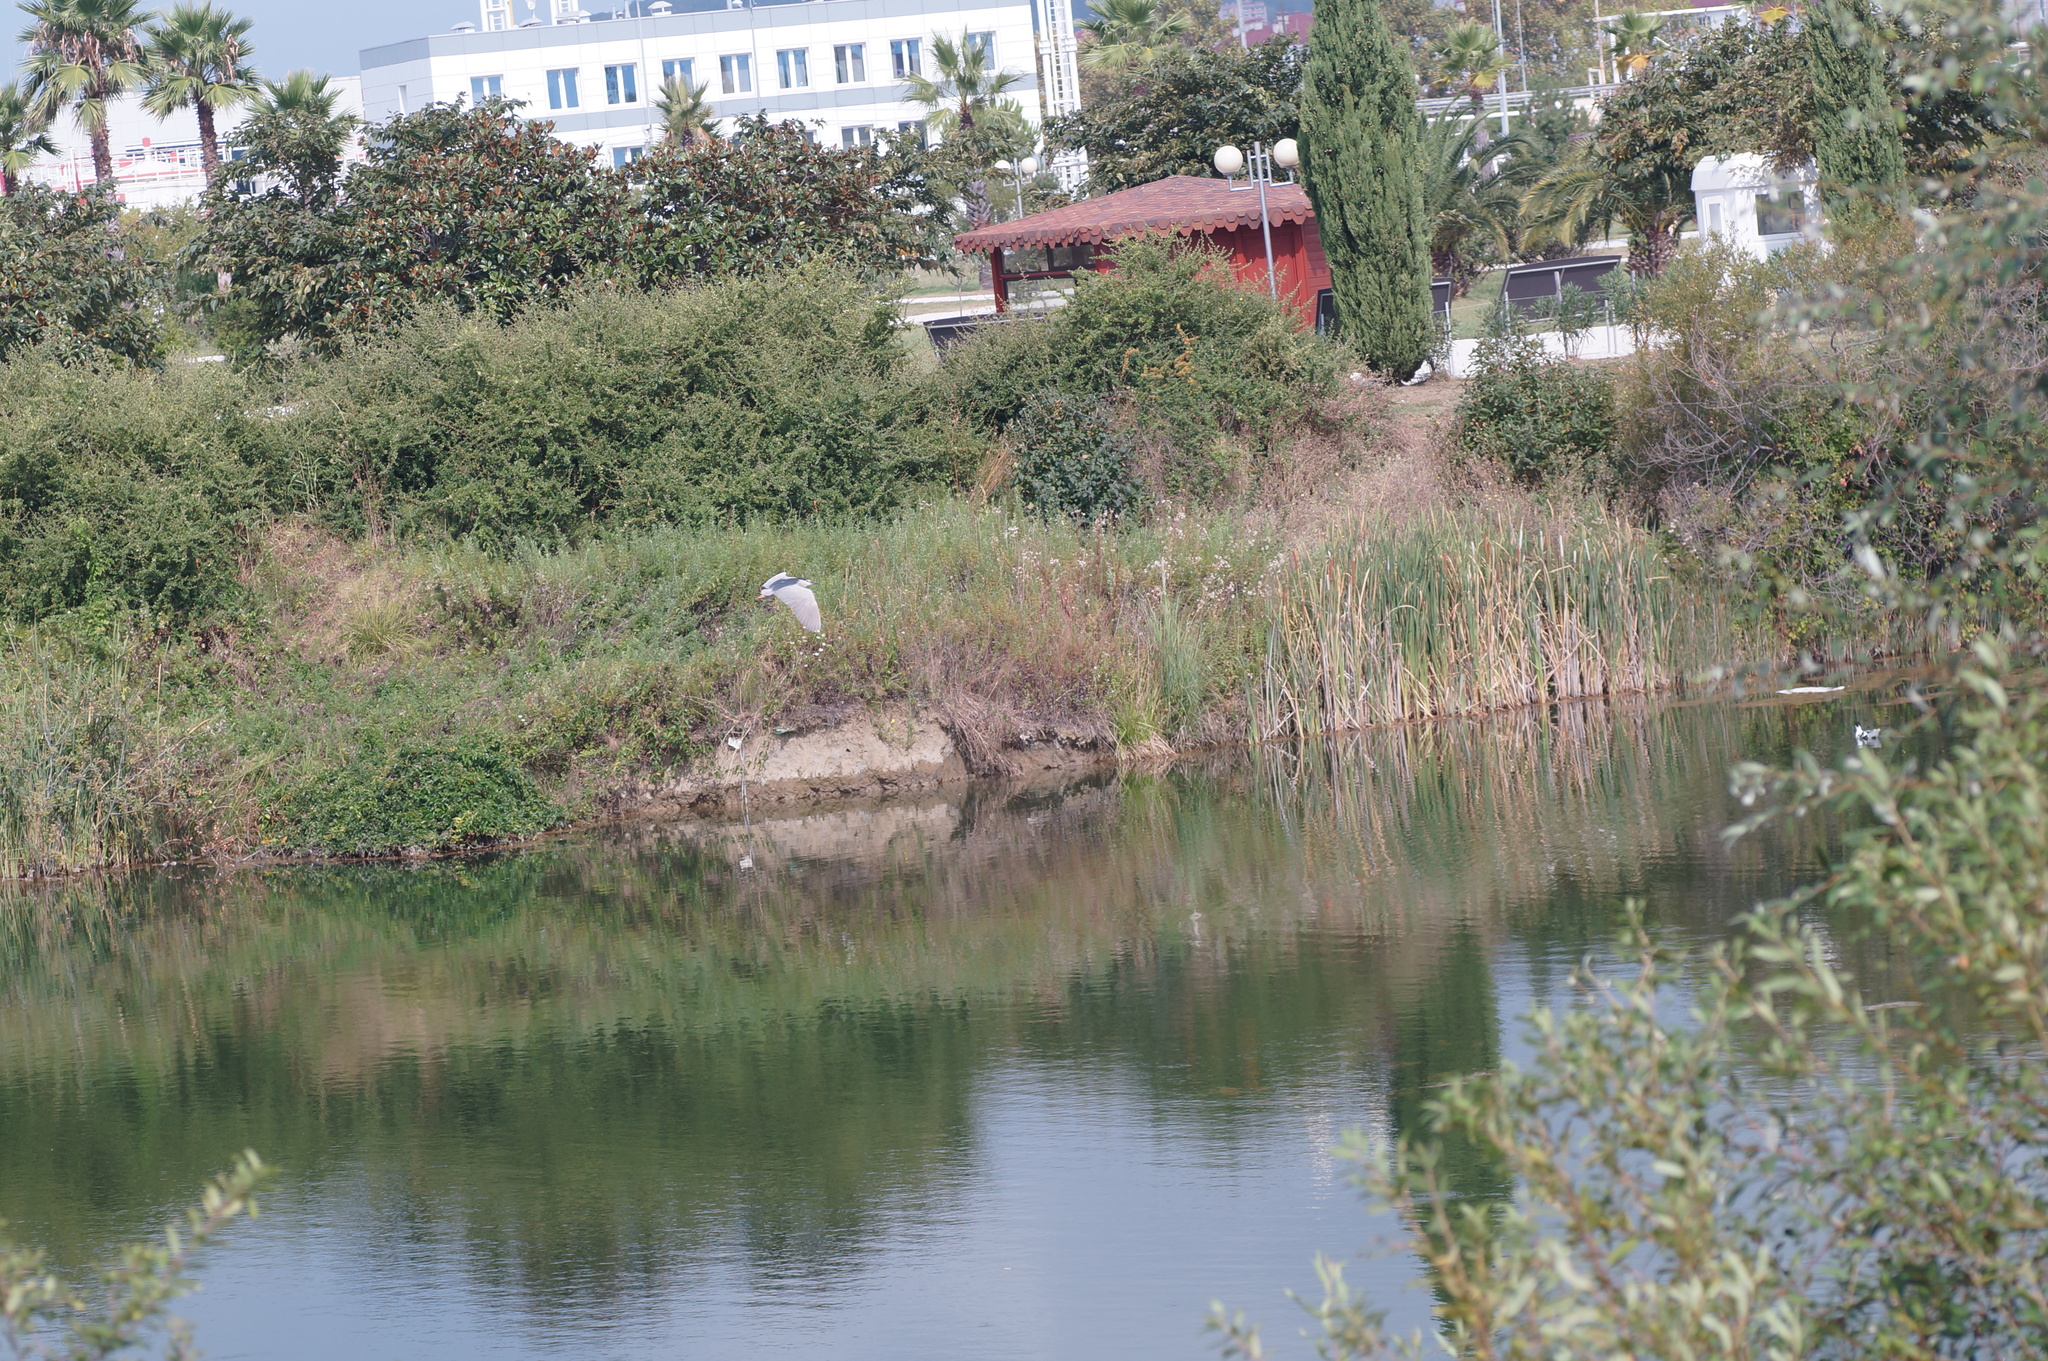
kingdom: Animalia
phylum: Chordata
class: Aves
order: Pelecaniformes
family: Ardeidae
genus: Nycticorax
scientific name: Nycticorax nycticorax
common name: Black-crowned night heron
